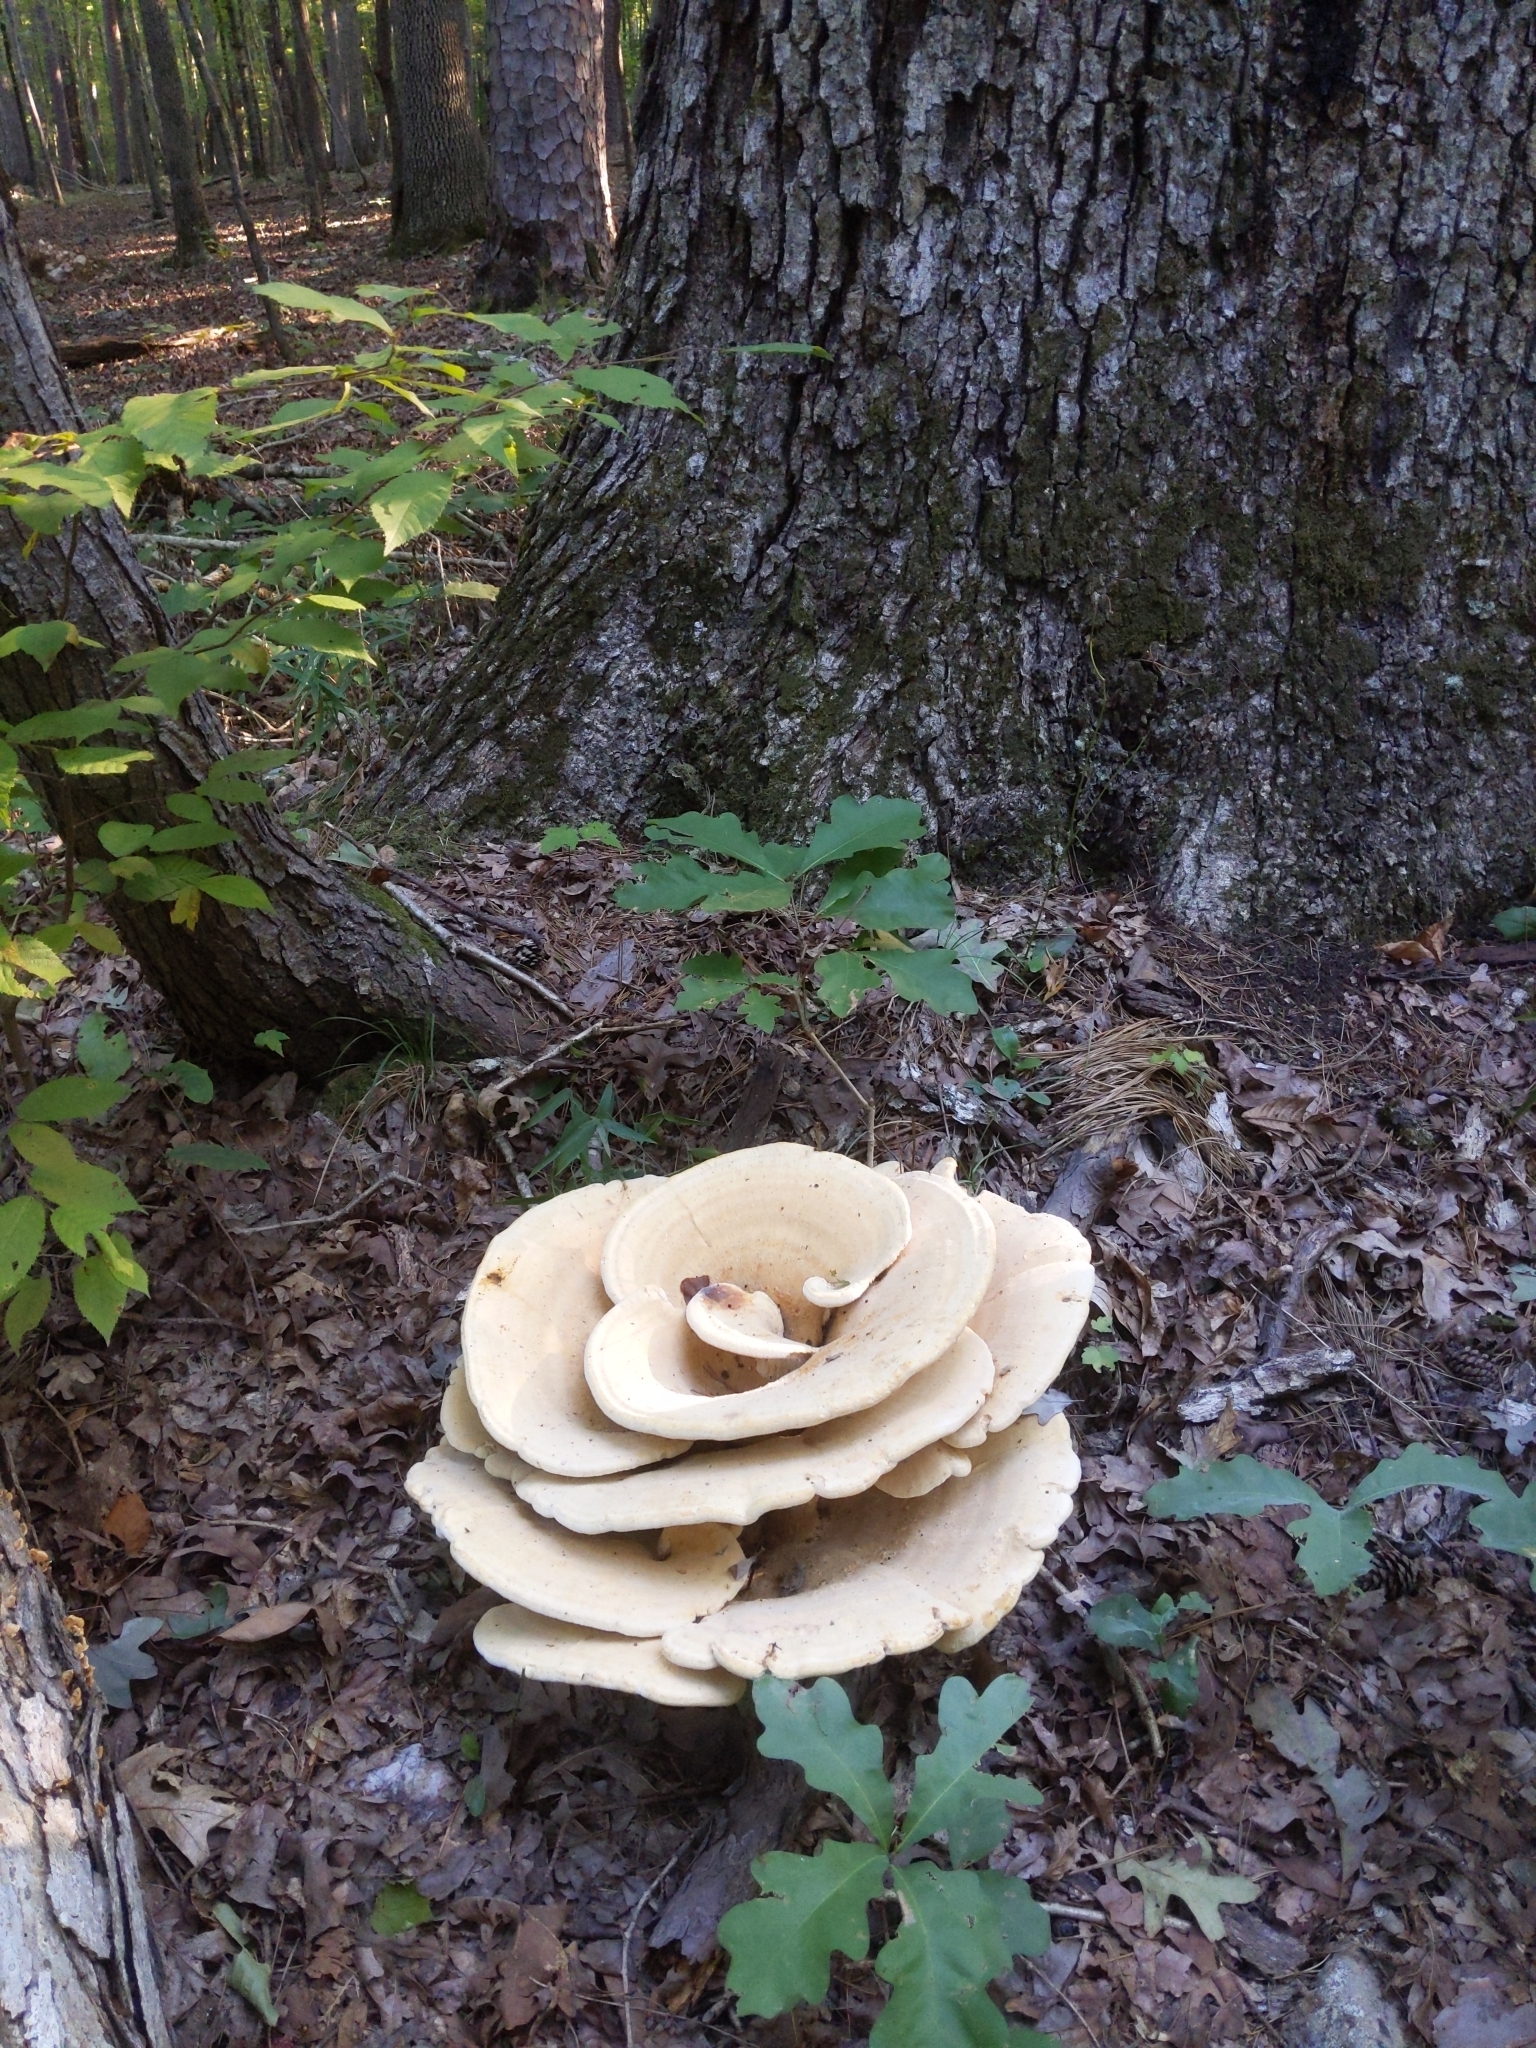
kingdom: Fungi
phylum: Basidiomycota
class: Agaricomycetes
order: Russulales
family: Bondarzewiaceae
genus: Bondarzewia
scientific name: Bondarzewia berkeleyi
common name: Berkeley's polypore
